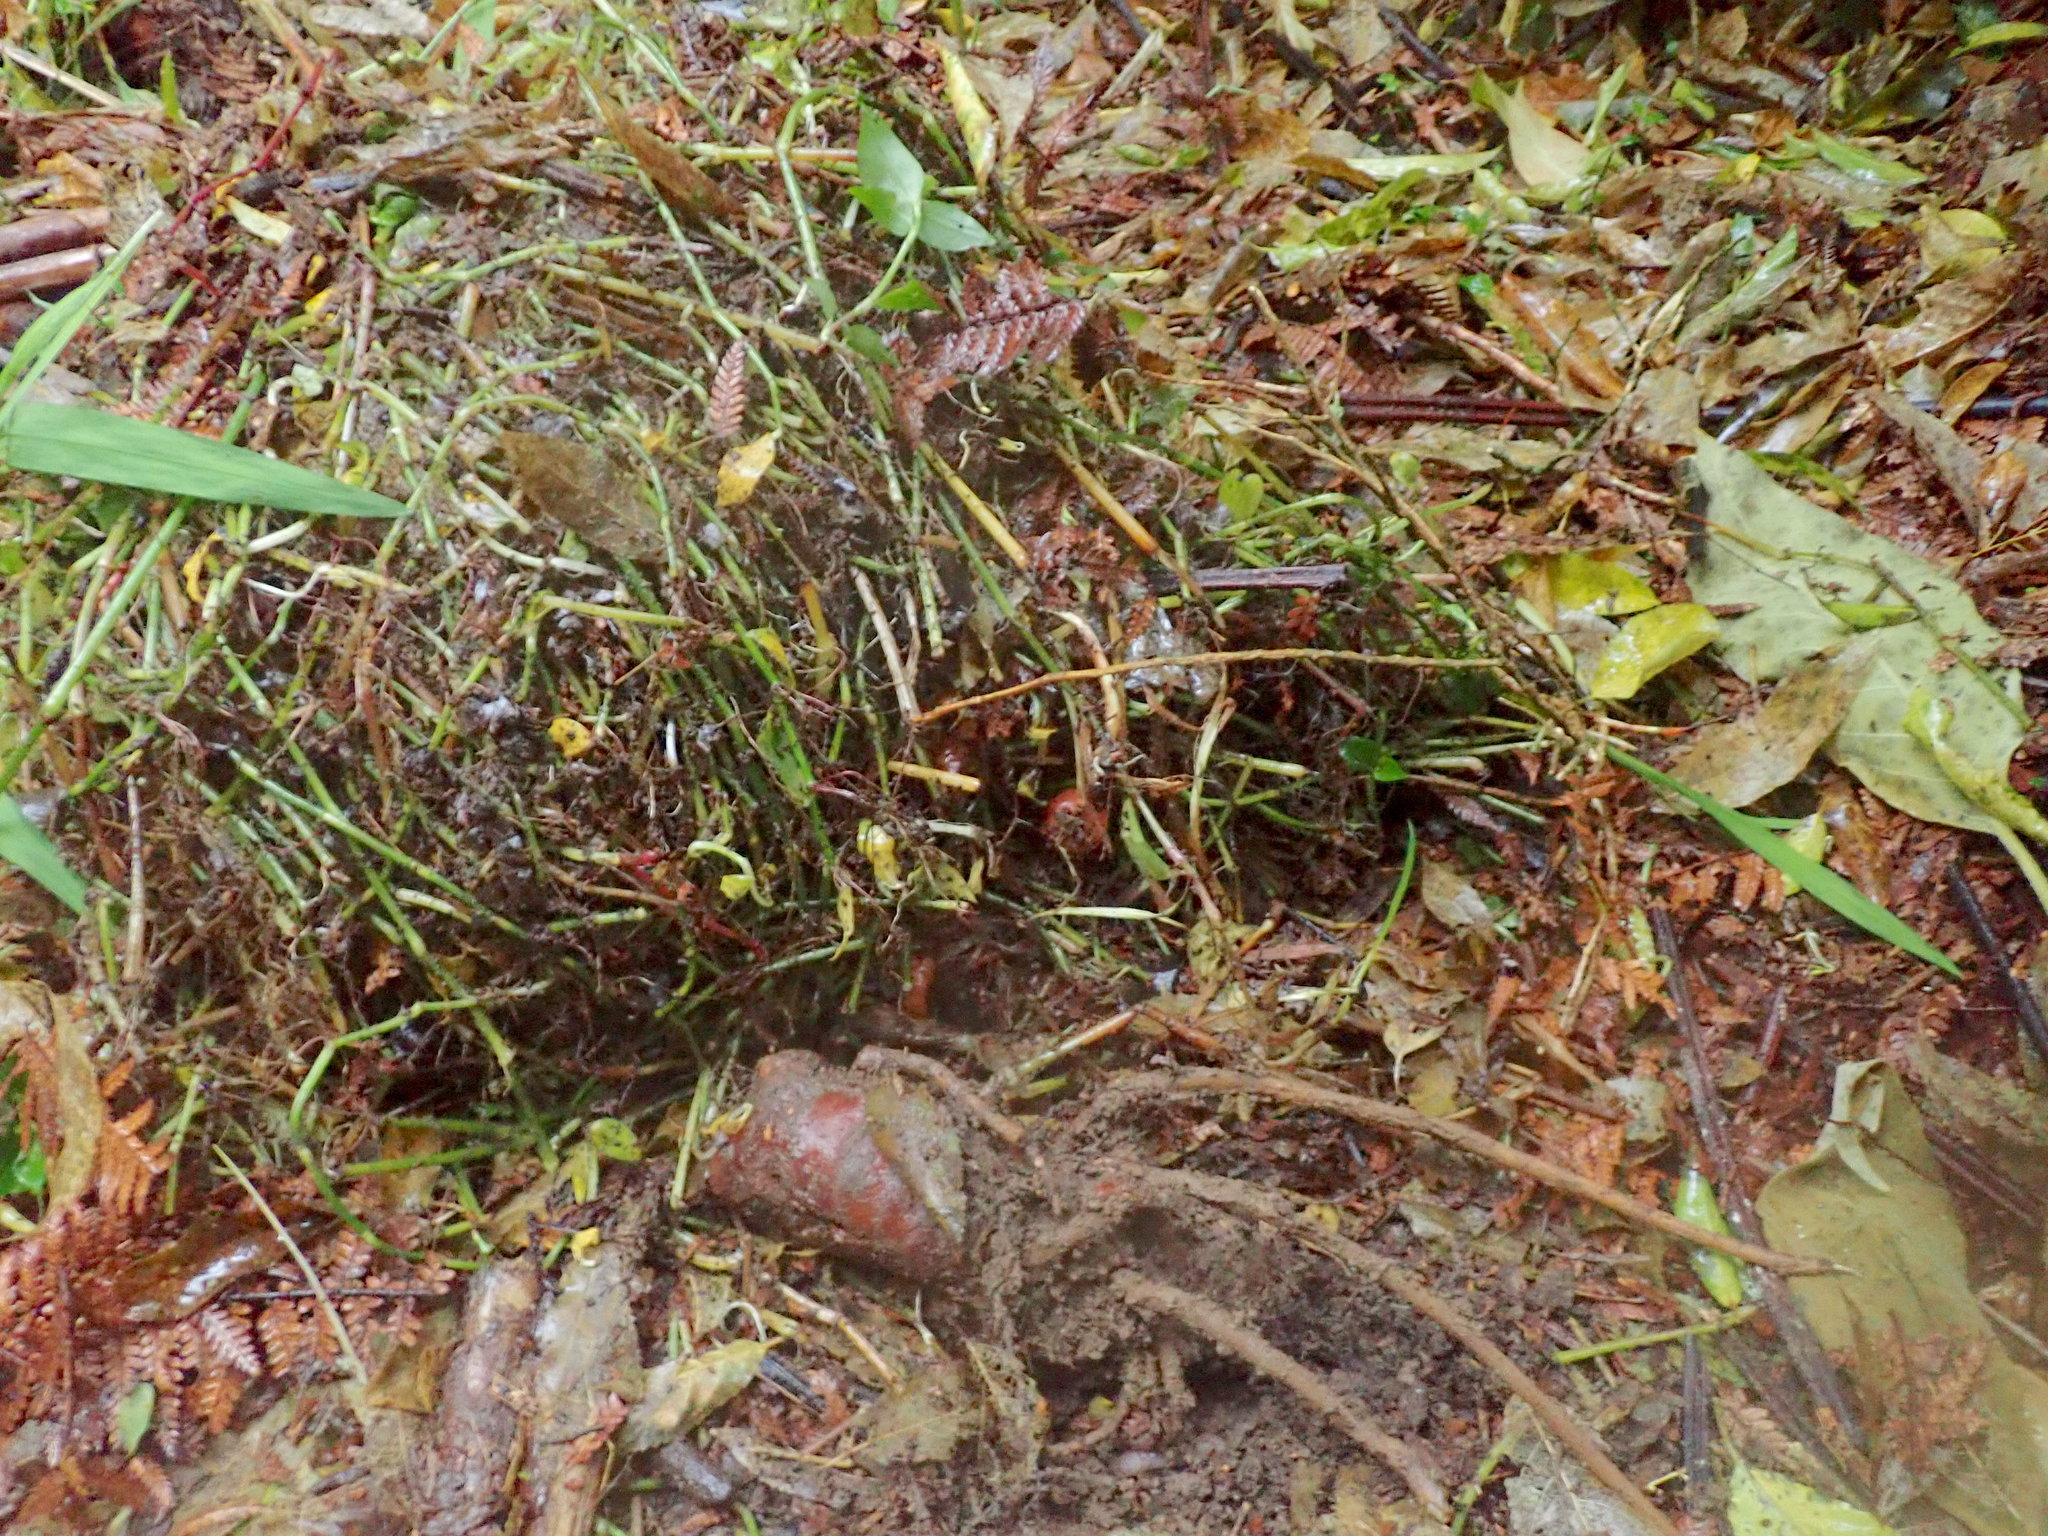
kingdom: Plantae
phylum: Tracheophyta
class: Liliopsida
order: Zingiberales
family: Zingiberaceae
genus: Hedychium
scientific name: Hedychium gardnerianum
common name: Himalayan ginger
